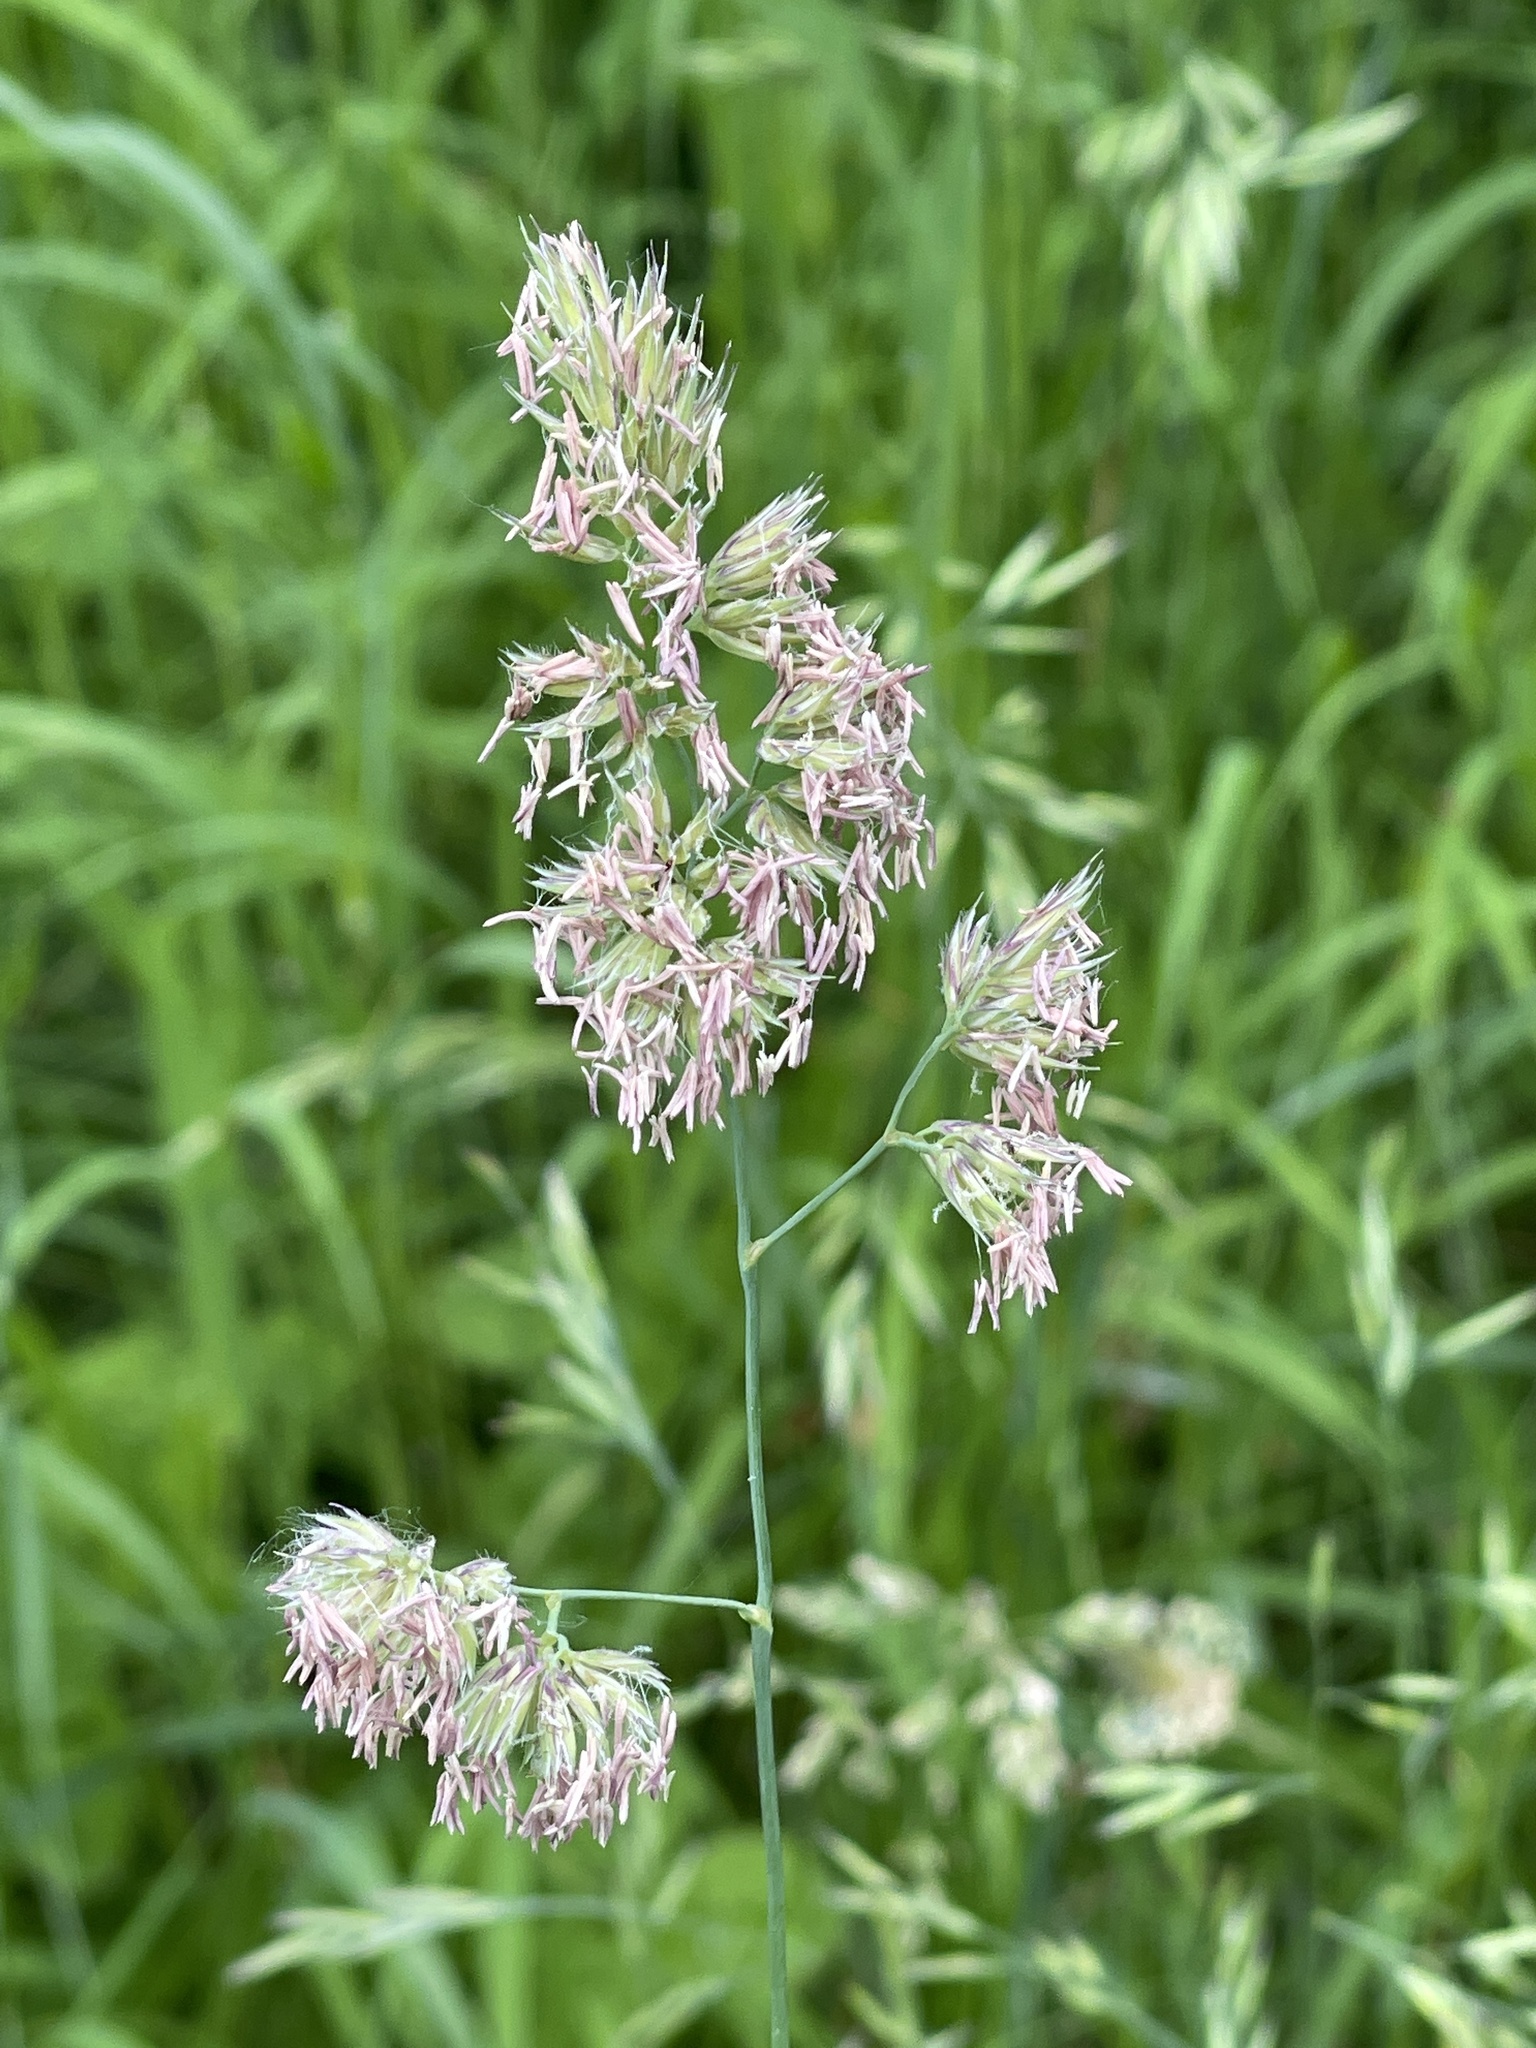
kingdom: Plantae
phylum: Tracheophyta
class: Liliopsida
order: Poales
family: Poaceae
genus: Dactylis
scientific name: Dactylis glomerata
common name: Orchardgrass
